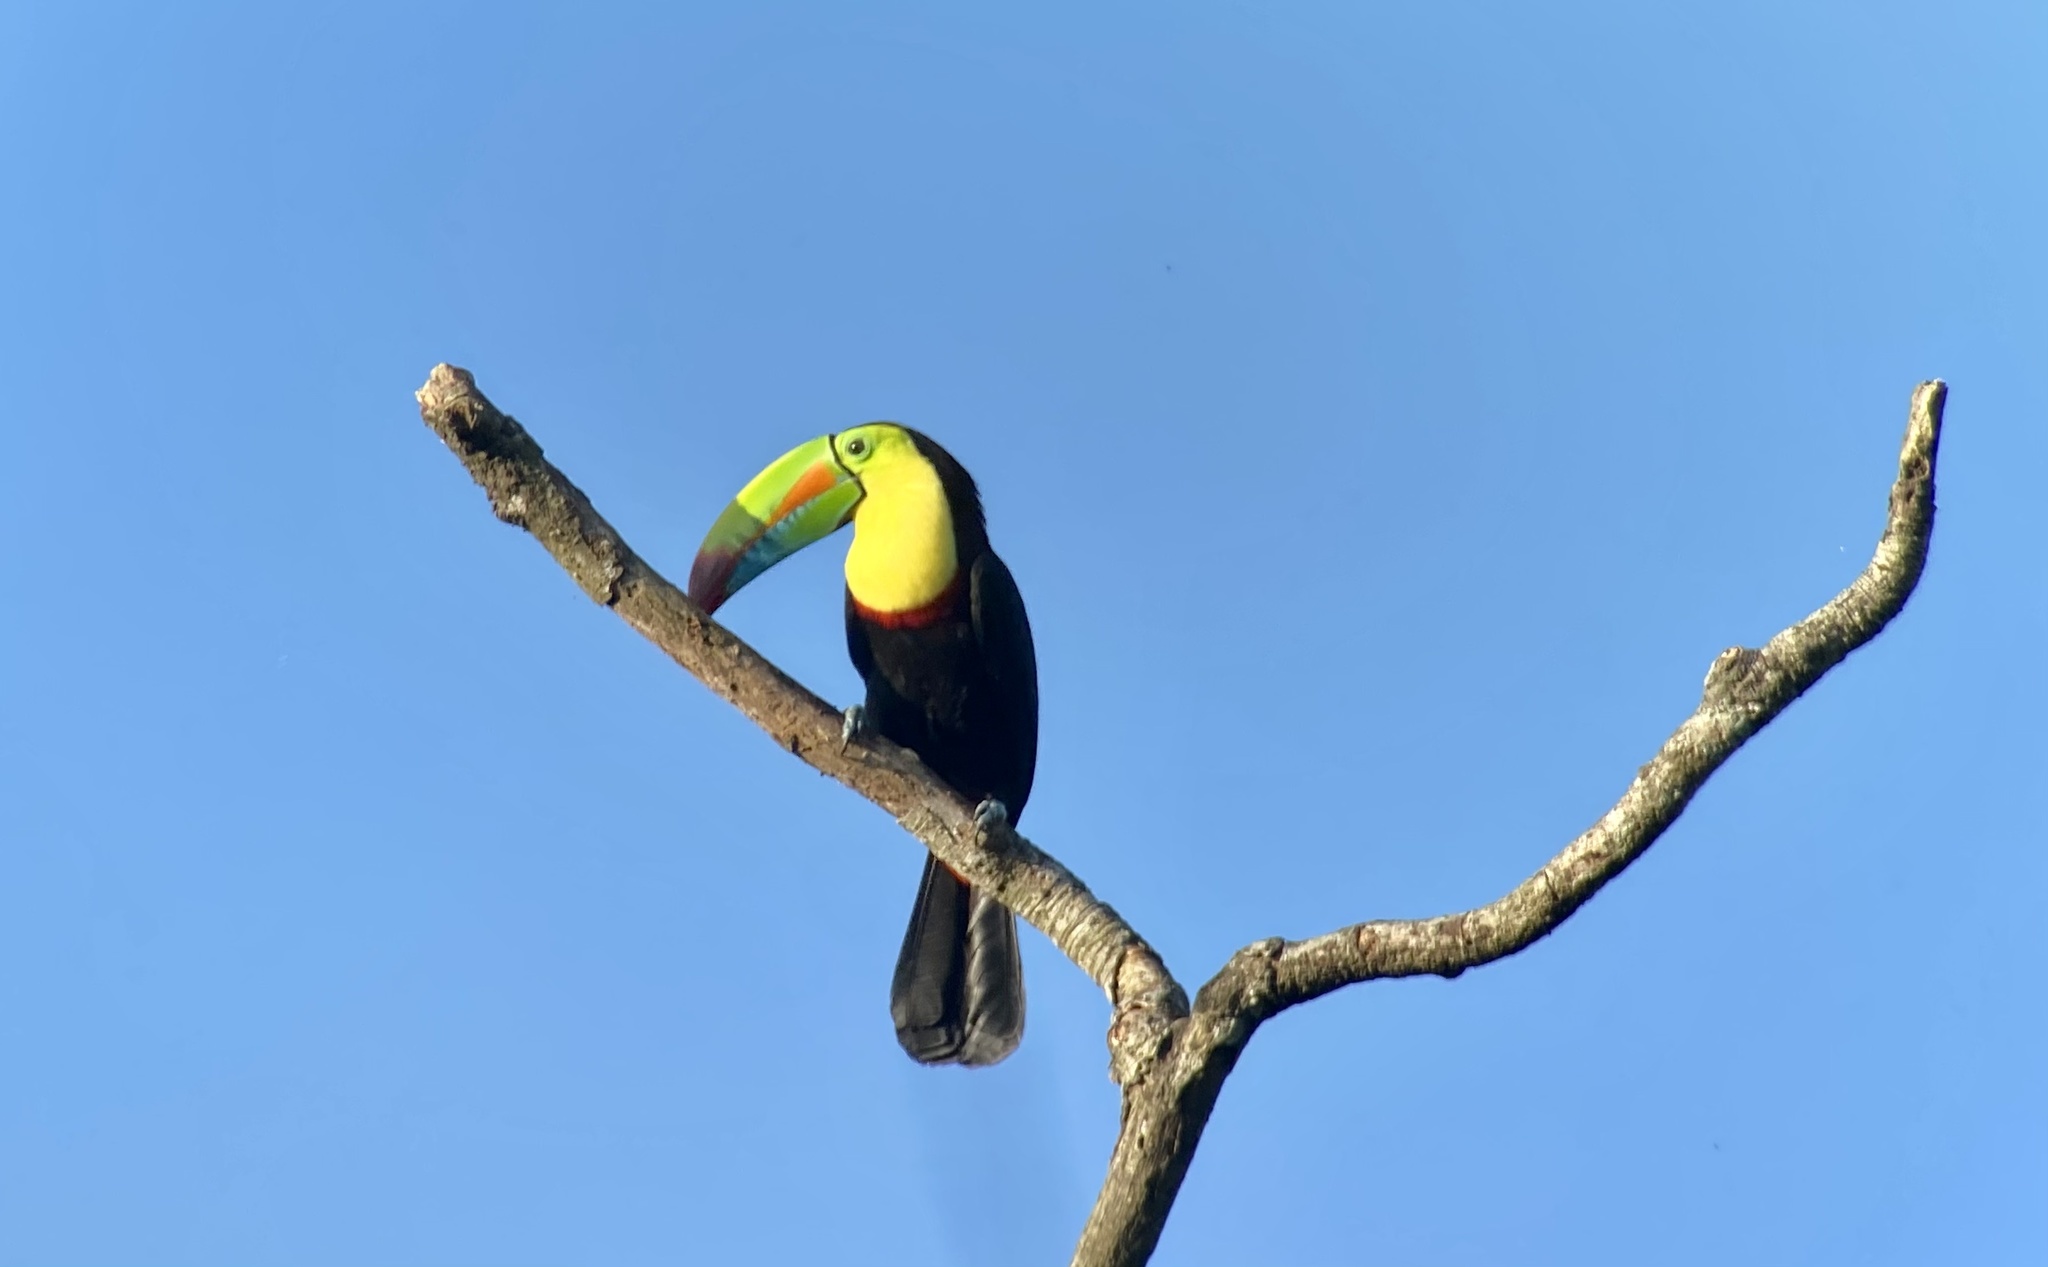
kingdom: Animalia
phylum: Chordata
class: Aves
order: Piciformes
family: Ramphastidae
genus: Ramphastos
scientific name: Ramphastos sulfuratus
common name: Keel-billed toucan
